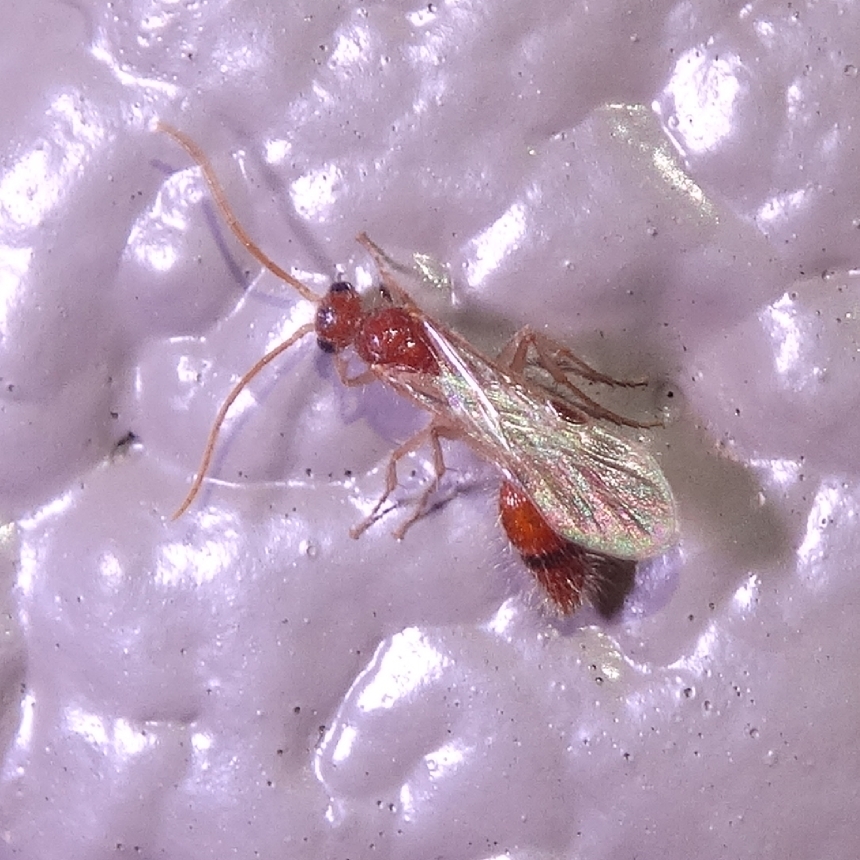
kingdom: Animalia
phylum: Arthropoda
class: Insecta
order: Hymenoptera
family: Chyphotidae
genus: Chyphotes
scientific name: Chyphotes
